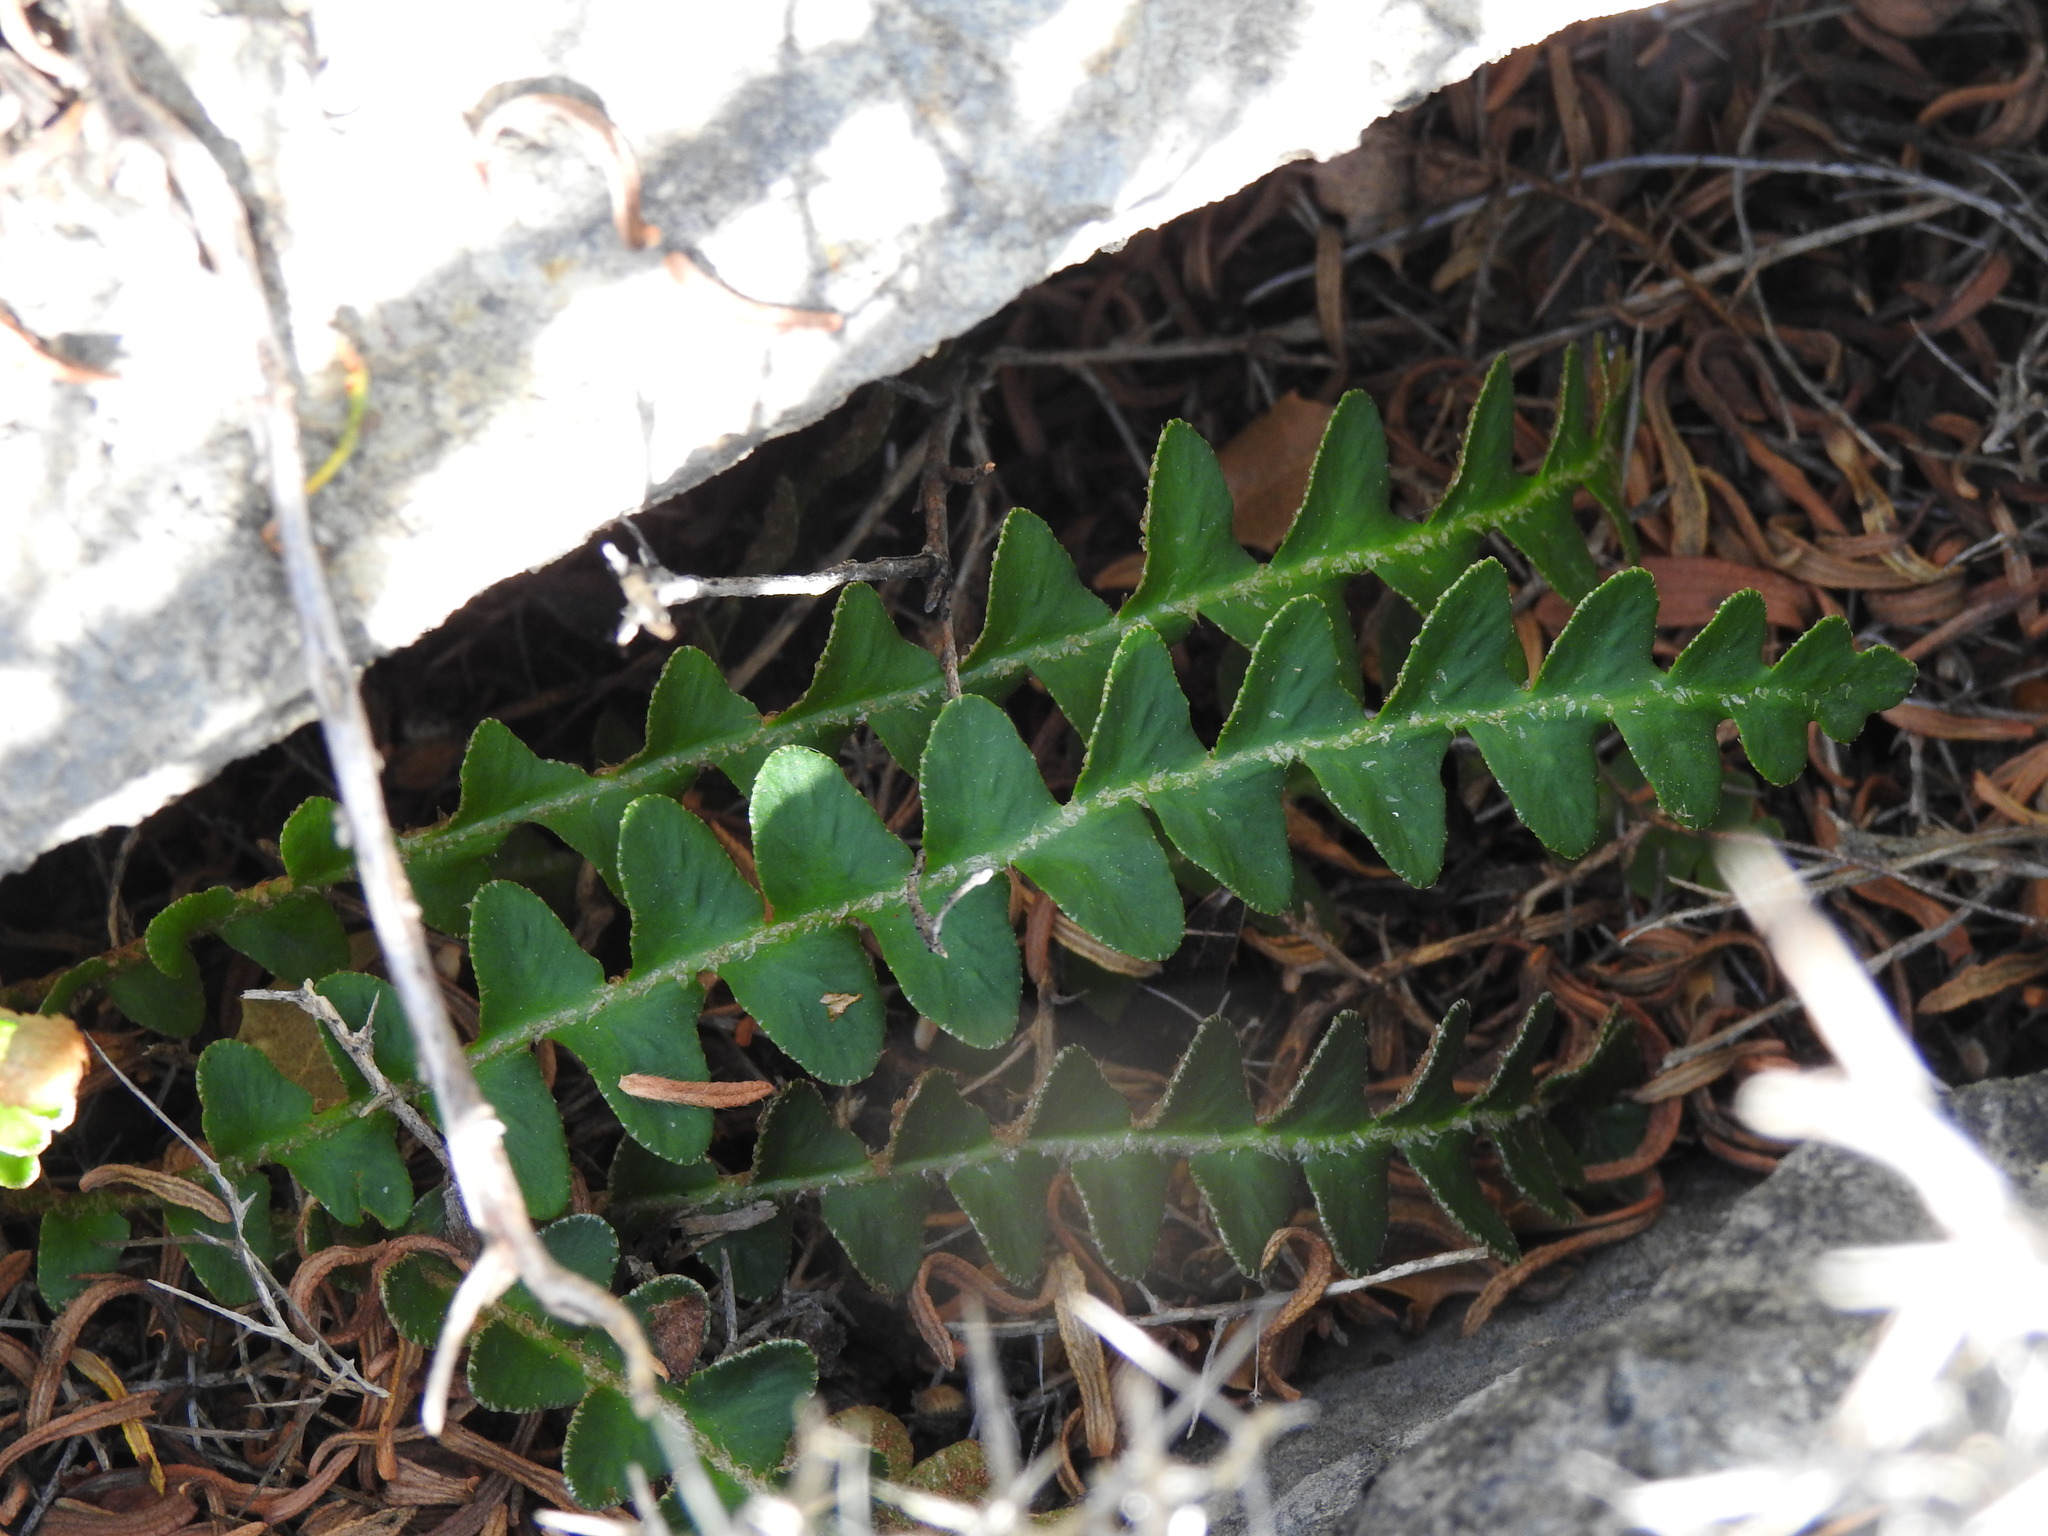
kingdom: Plantae
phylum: Tracheophyta
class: Polypodiopsida
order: Polypodiales
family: Aspleniaceae
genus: Asplenium
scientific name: Asplenium ceterach
